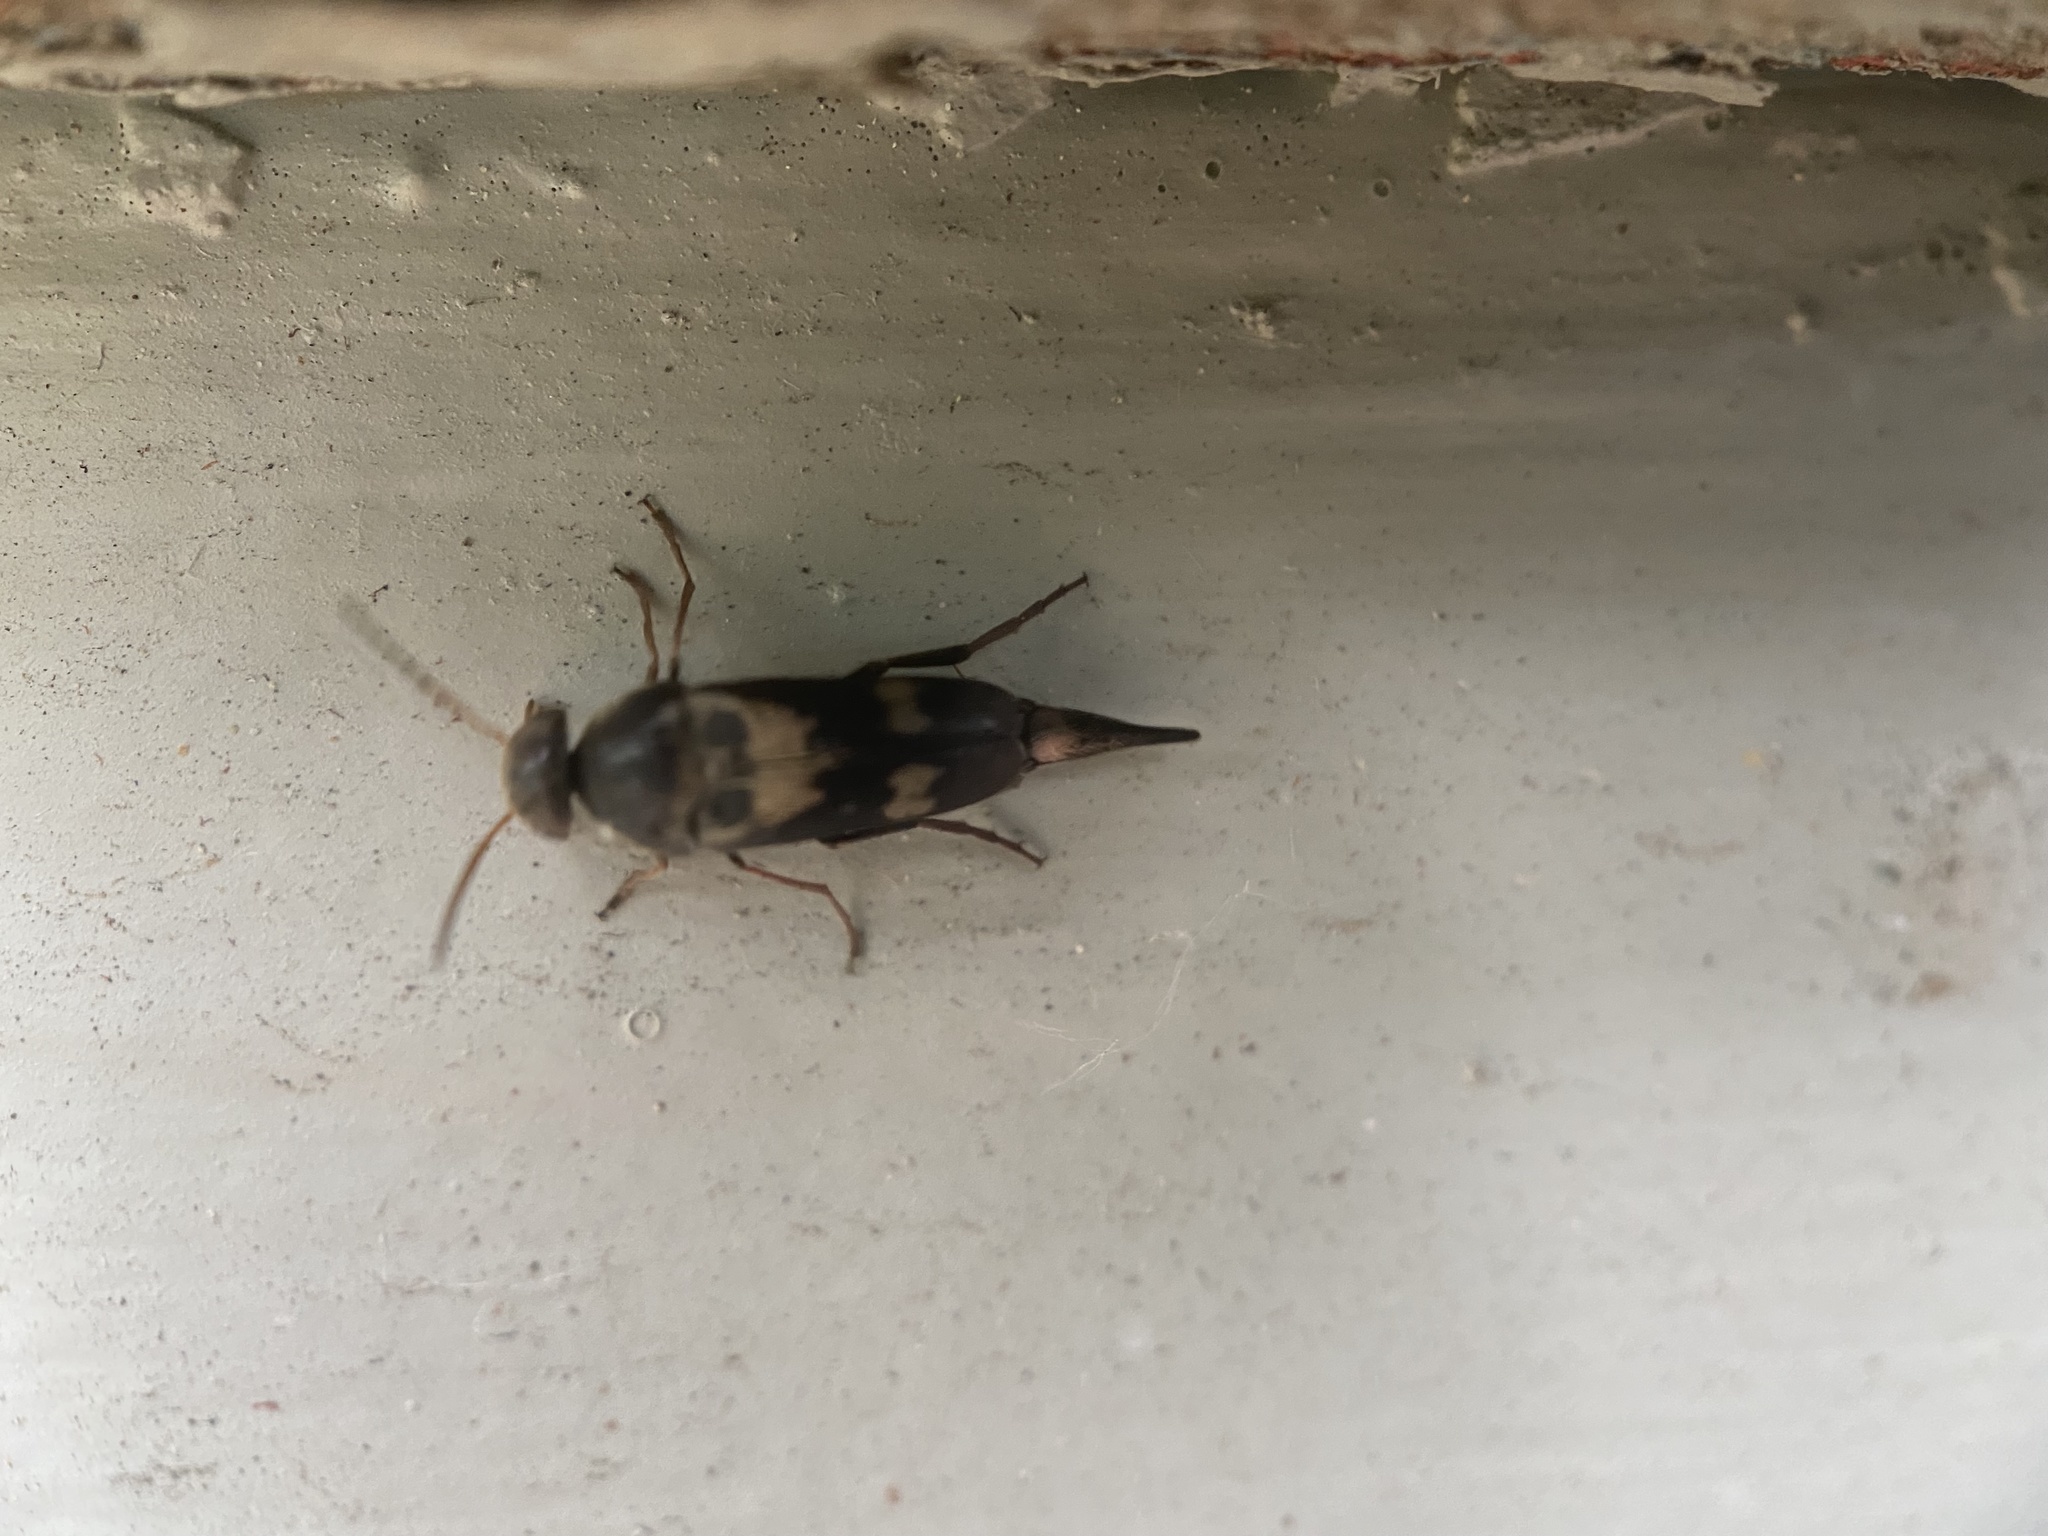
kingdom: Animalia
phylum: Arthropoda
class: Insecta
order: Coleoptera
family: Mordellidae
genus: Glipa
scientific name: Glipa oculata
